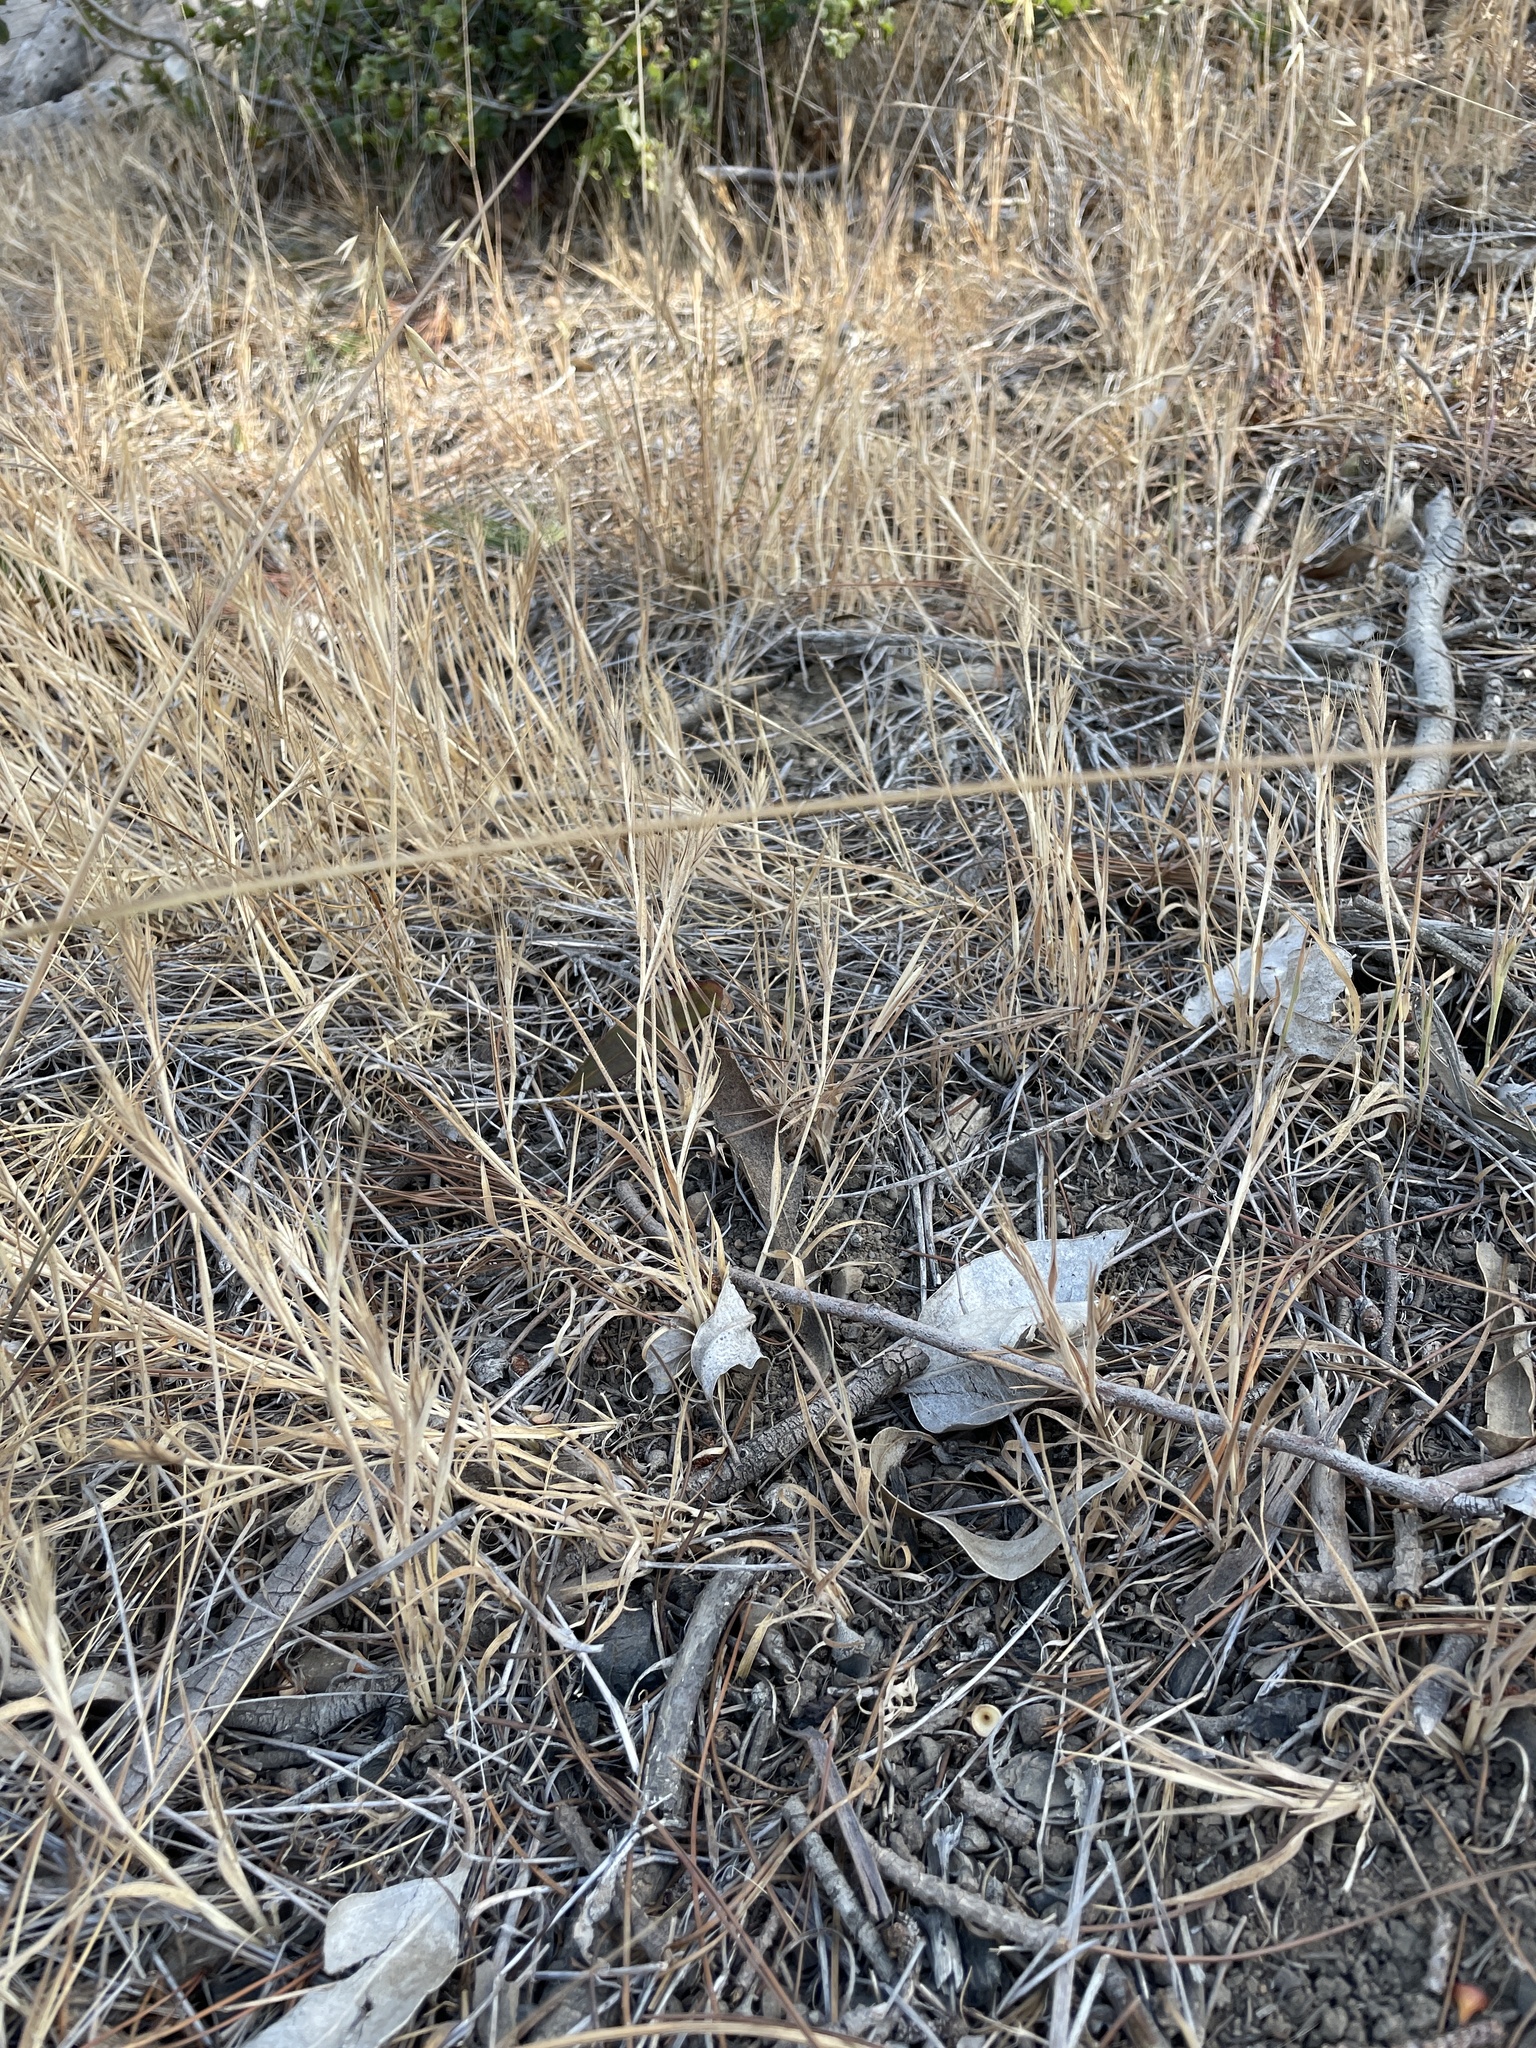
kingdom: Plantae
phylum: Tracheophyta
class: Liliopsida
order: Poales
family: Poaceae
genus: Brachypodium
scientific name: Brachypodium distachyon
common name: Stiff brome
